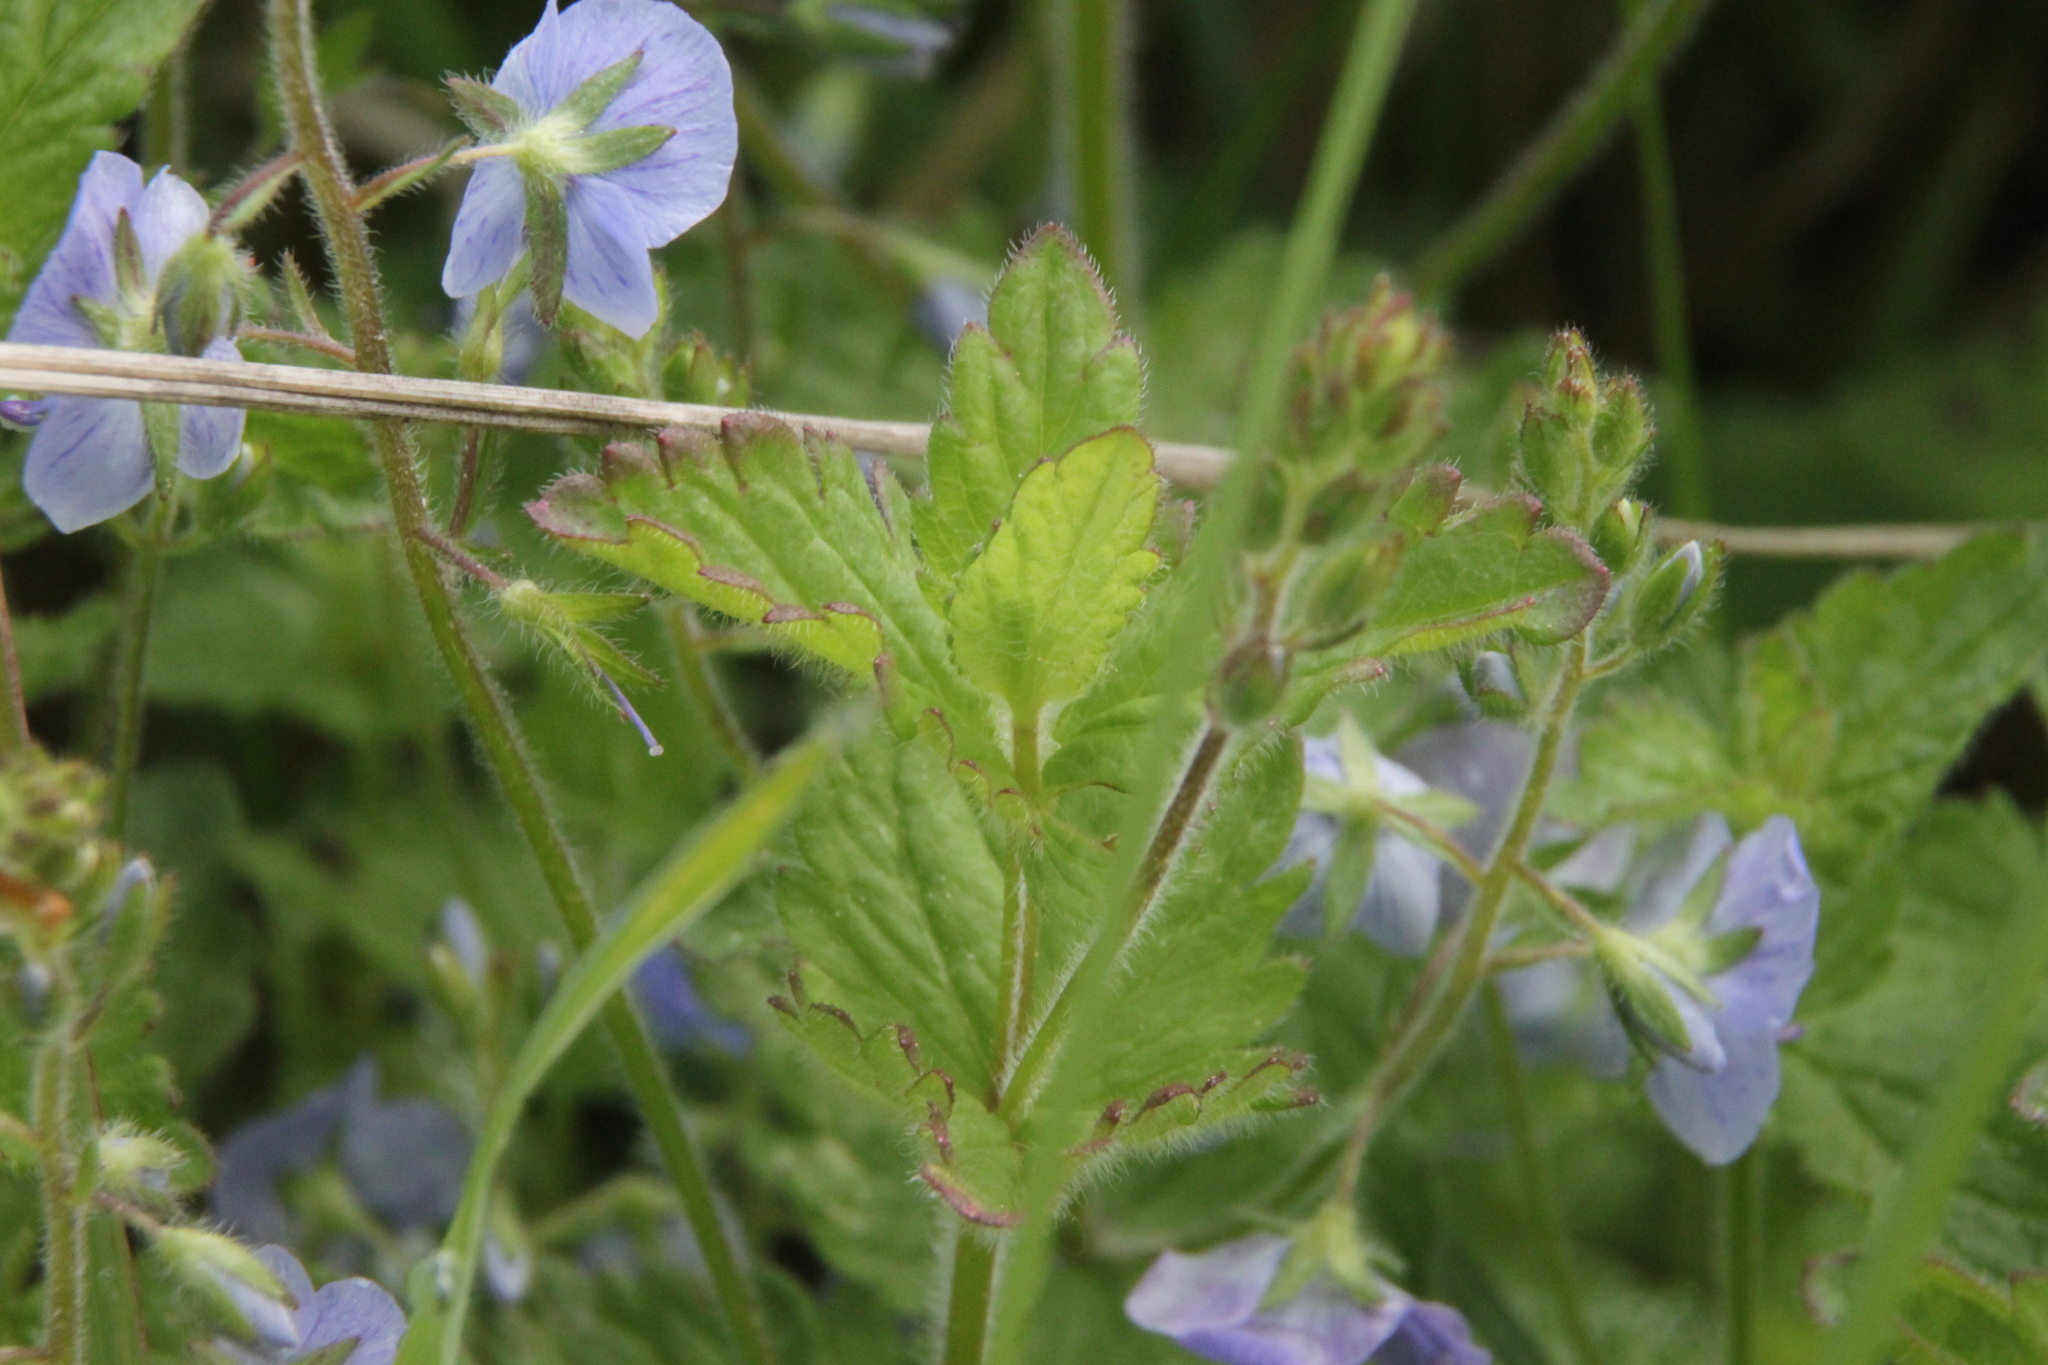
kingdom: Plantae
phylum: Tracheophyta
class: Magnoliopsida
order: Lamiales
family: Plantaginaceae
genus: Veronica
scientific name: Veronica chamaedrys
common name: Germander speedwell
